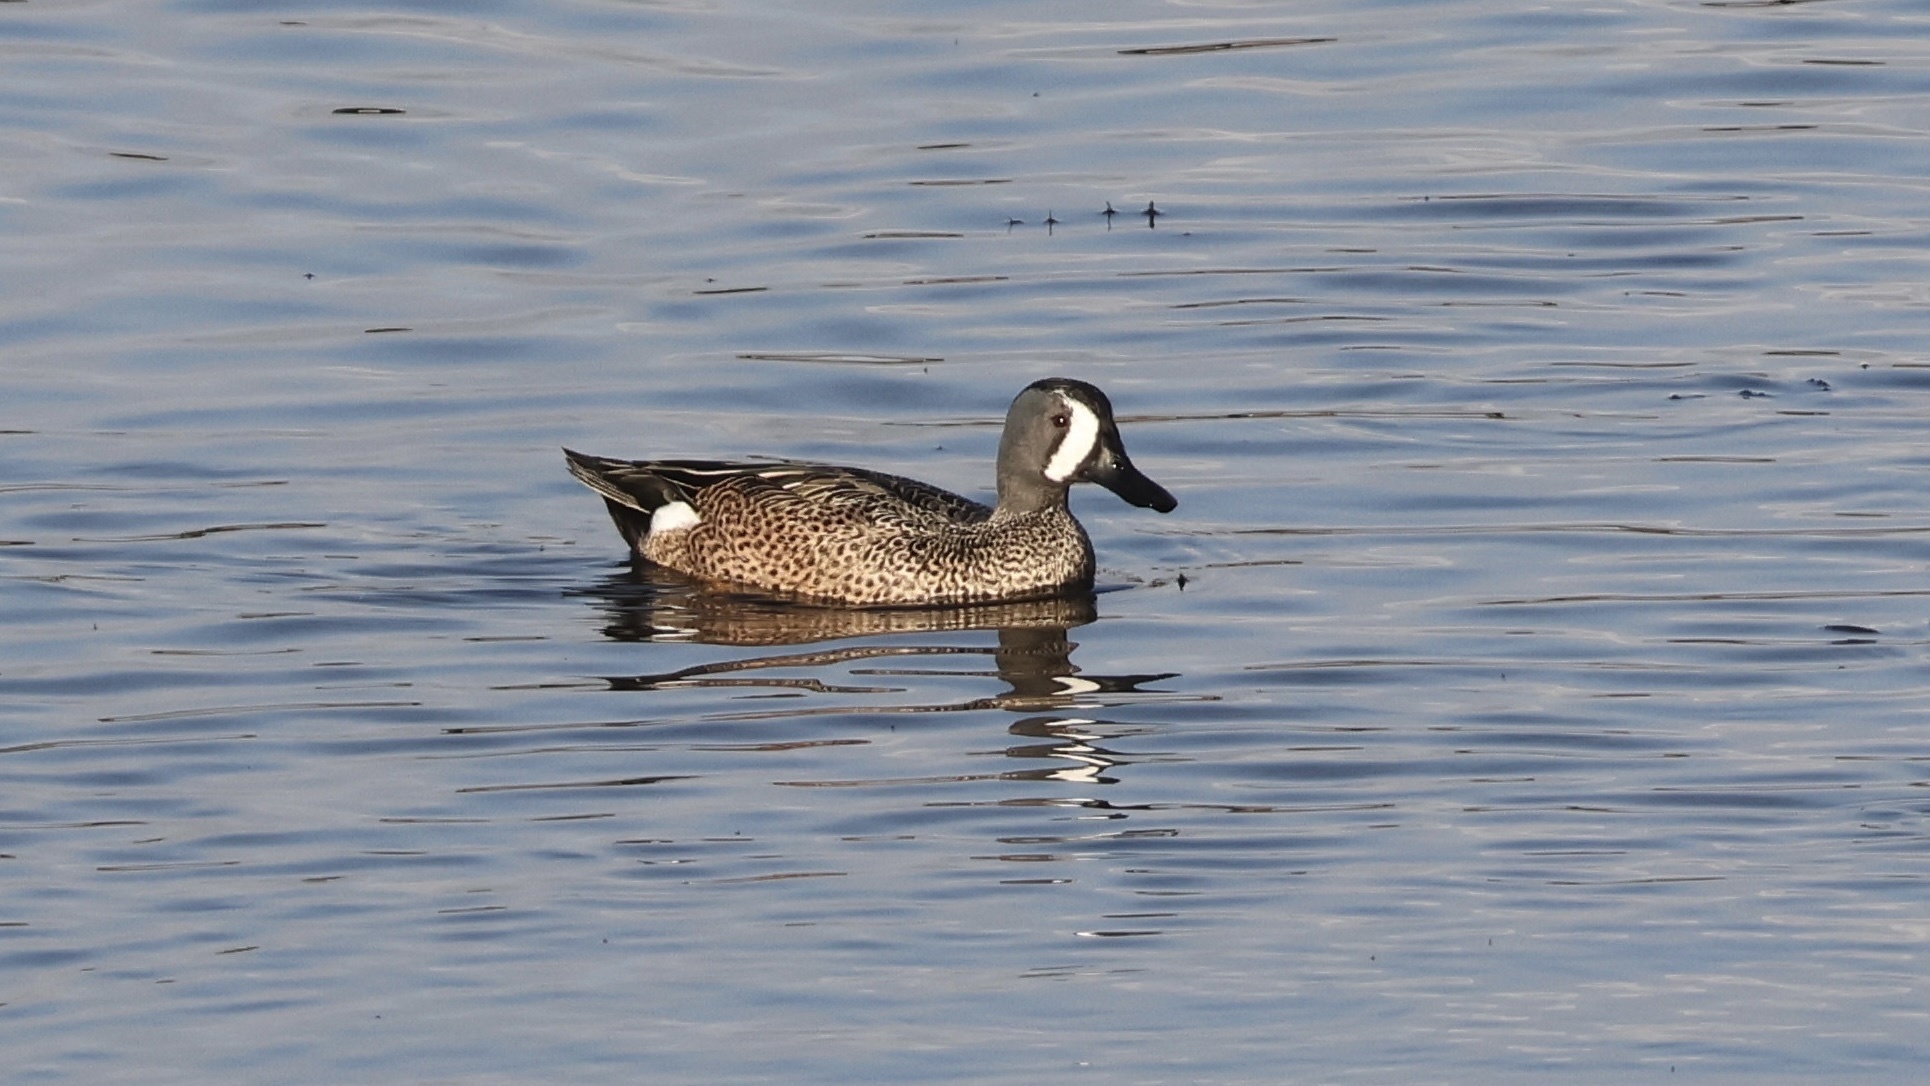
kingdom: Animalia
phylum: Chordata
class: Aves
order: Anseriformes
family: Anatidae
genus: Spatula
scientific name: Spatula discors
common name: Blue-winged teal
